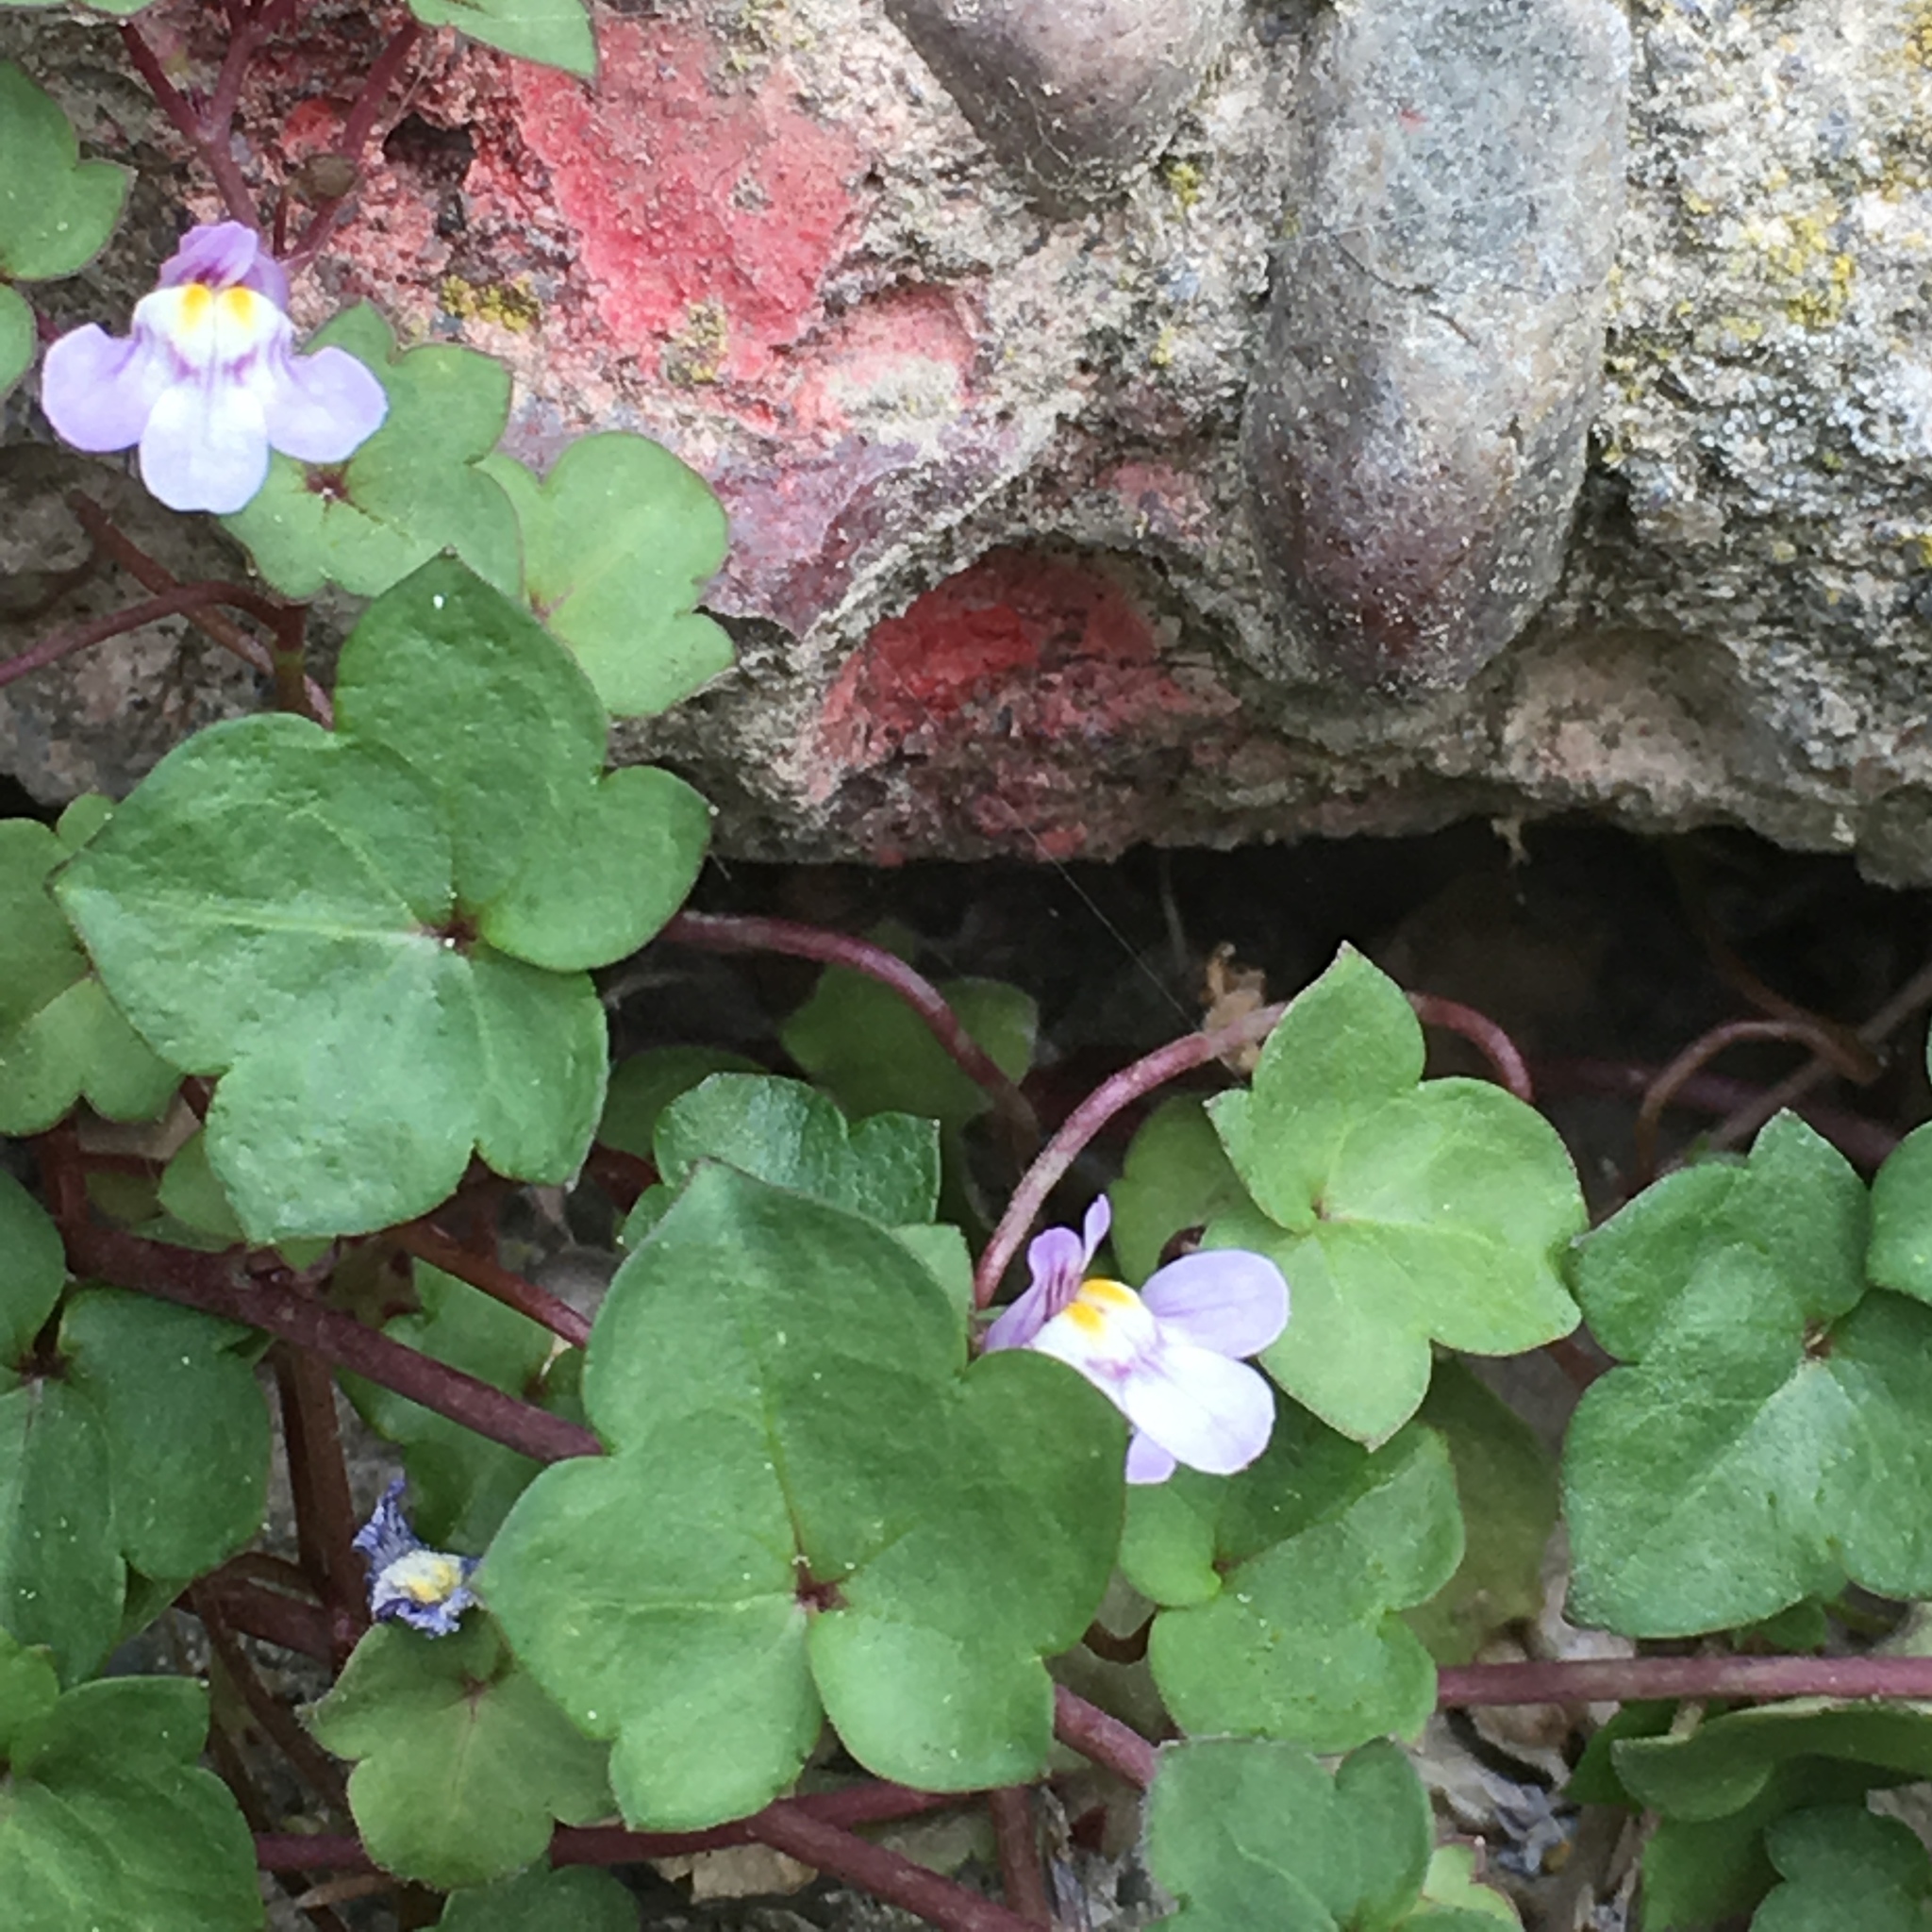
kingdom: Plantae
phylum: Tracheophyta
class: Magnoliopsida
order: Lamiales
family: Plantaginaceae
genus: Cymbalaria
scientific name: Cymbalaria muralis
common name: Ivy-leaved toadflax
